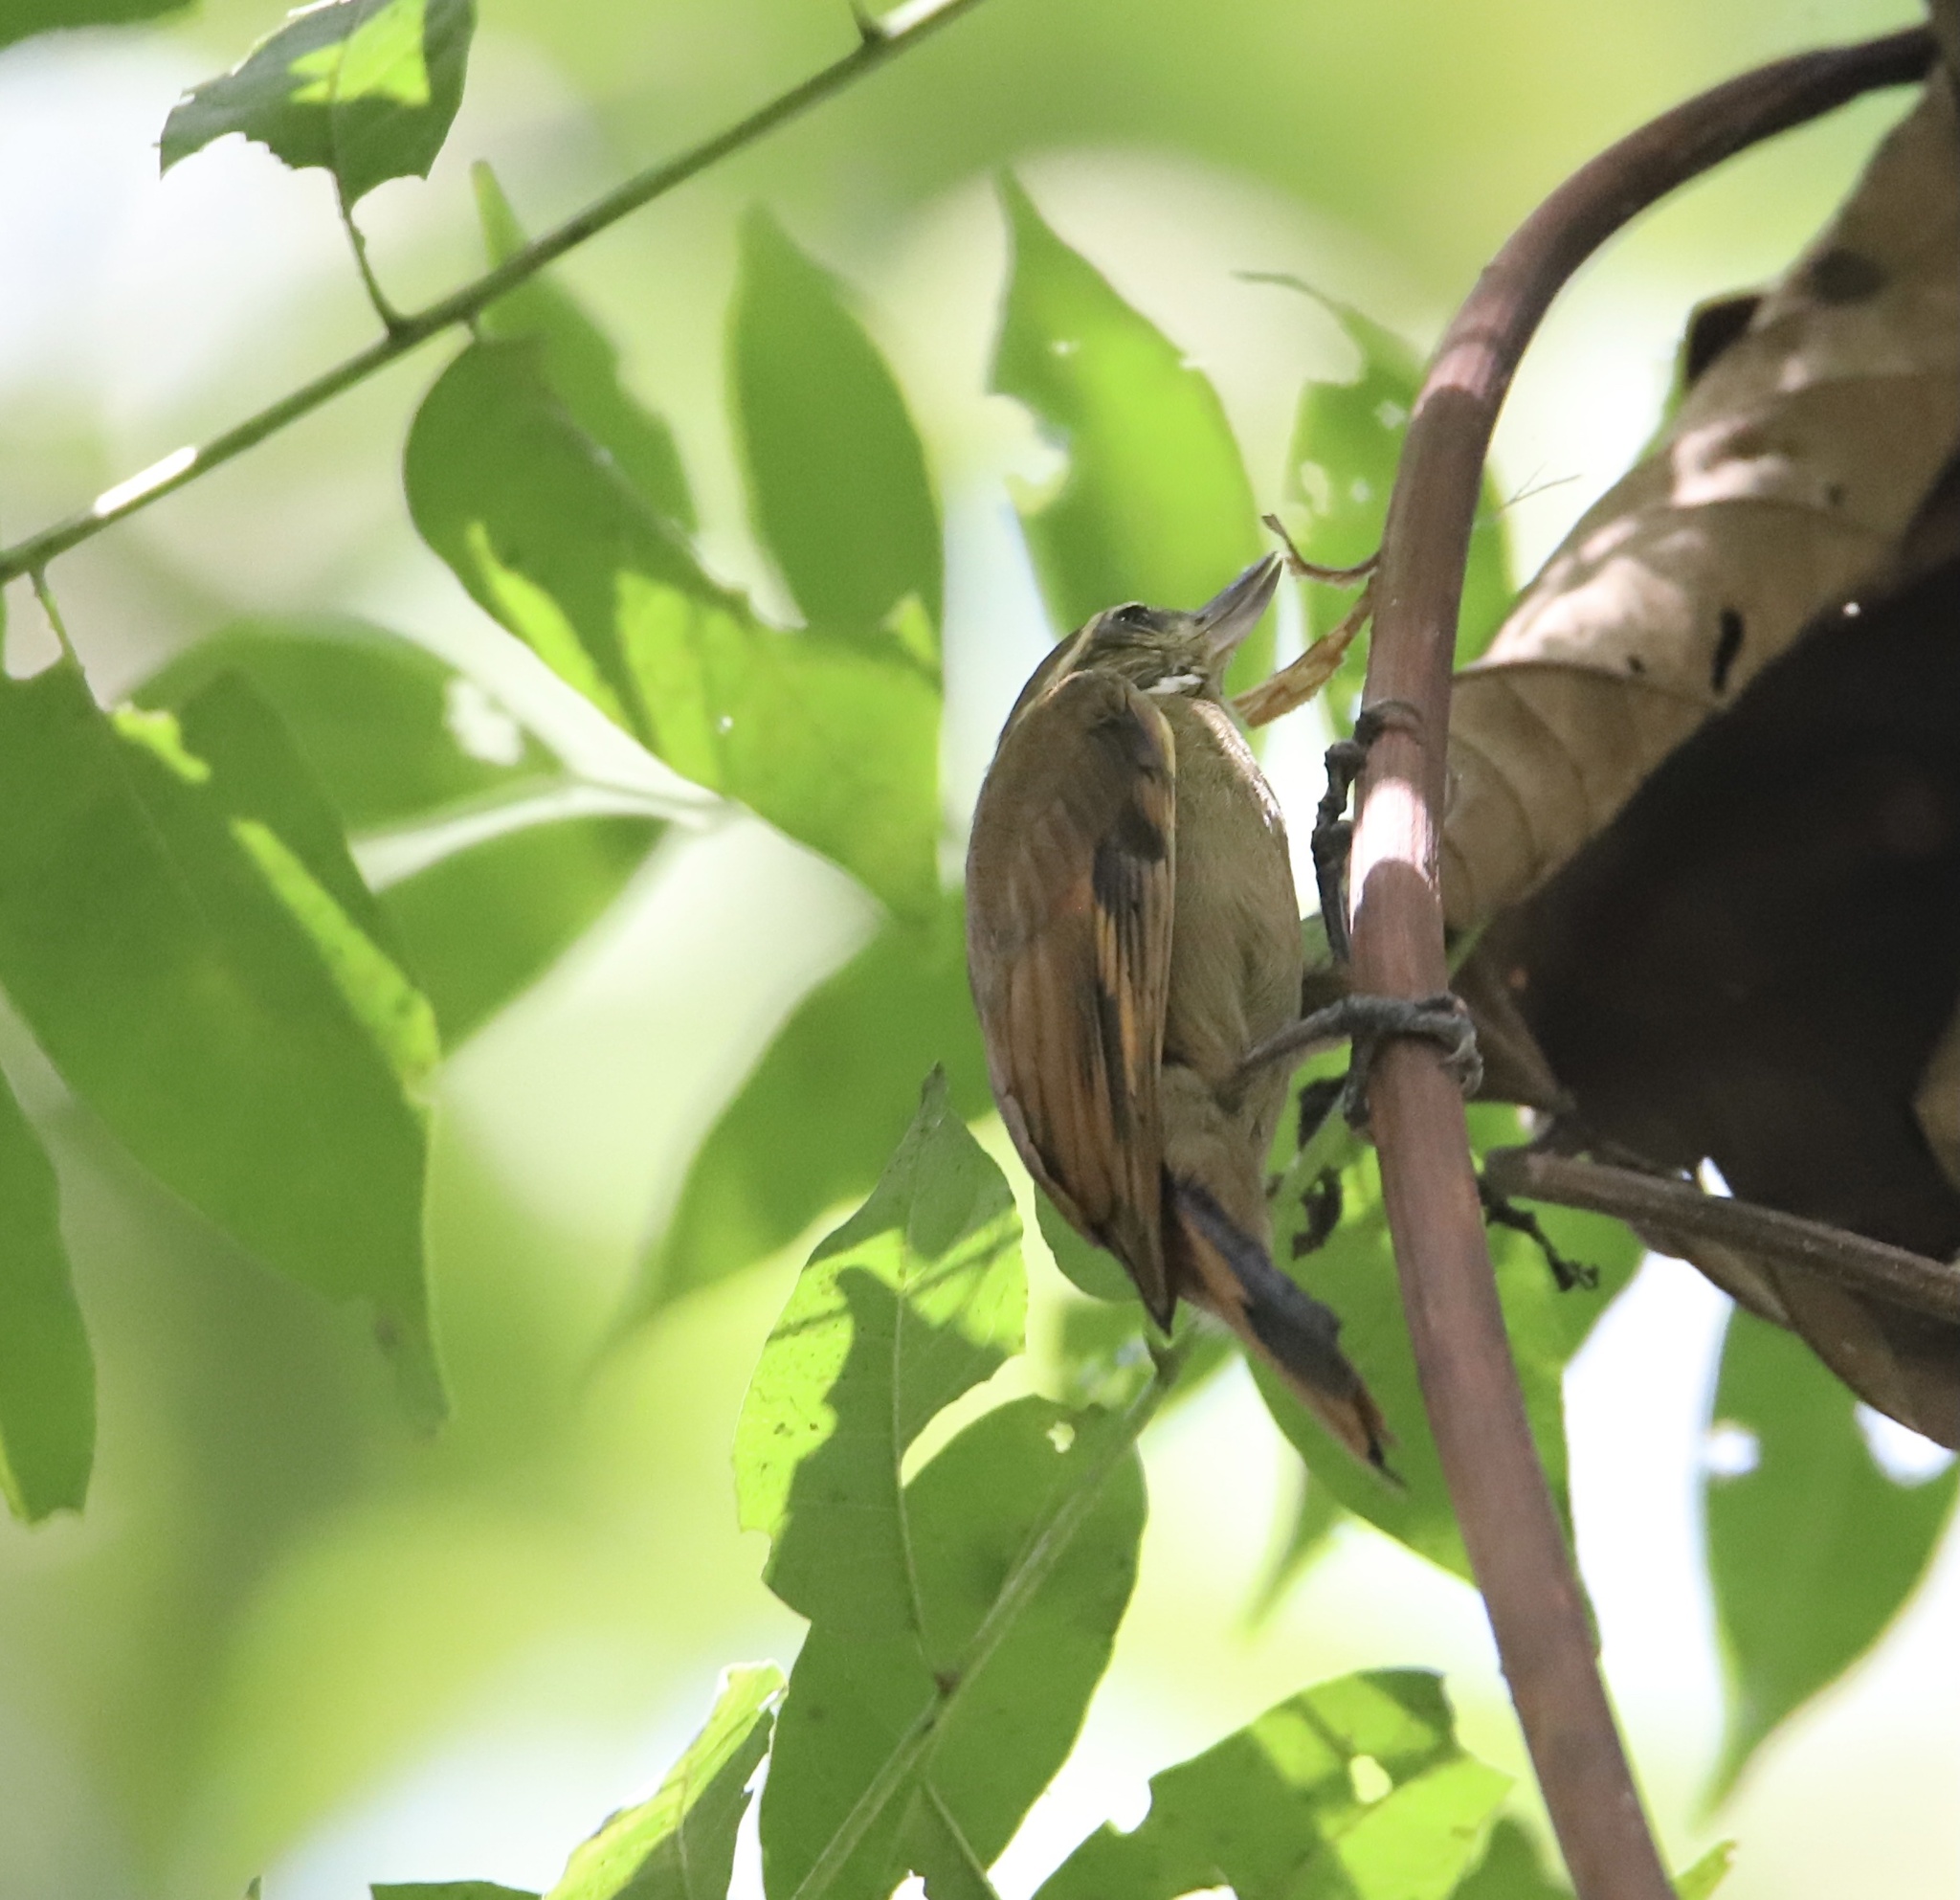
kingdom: Animalia
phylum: Chordata
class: Aves
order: Passeriformes
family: Furnariidae
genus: Xenops
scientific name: Xenops minutus
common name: Plain xenops
